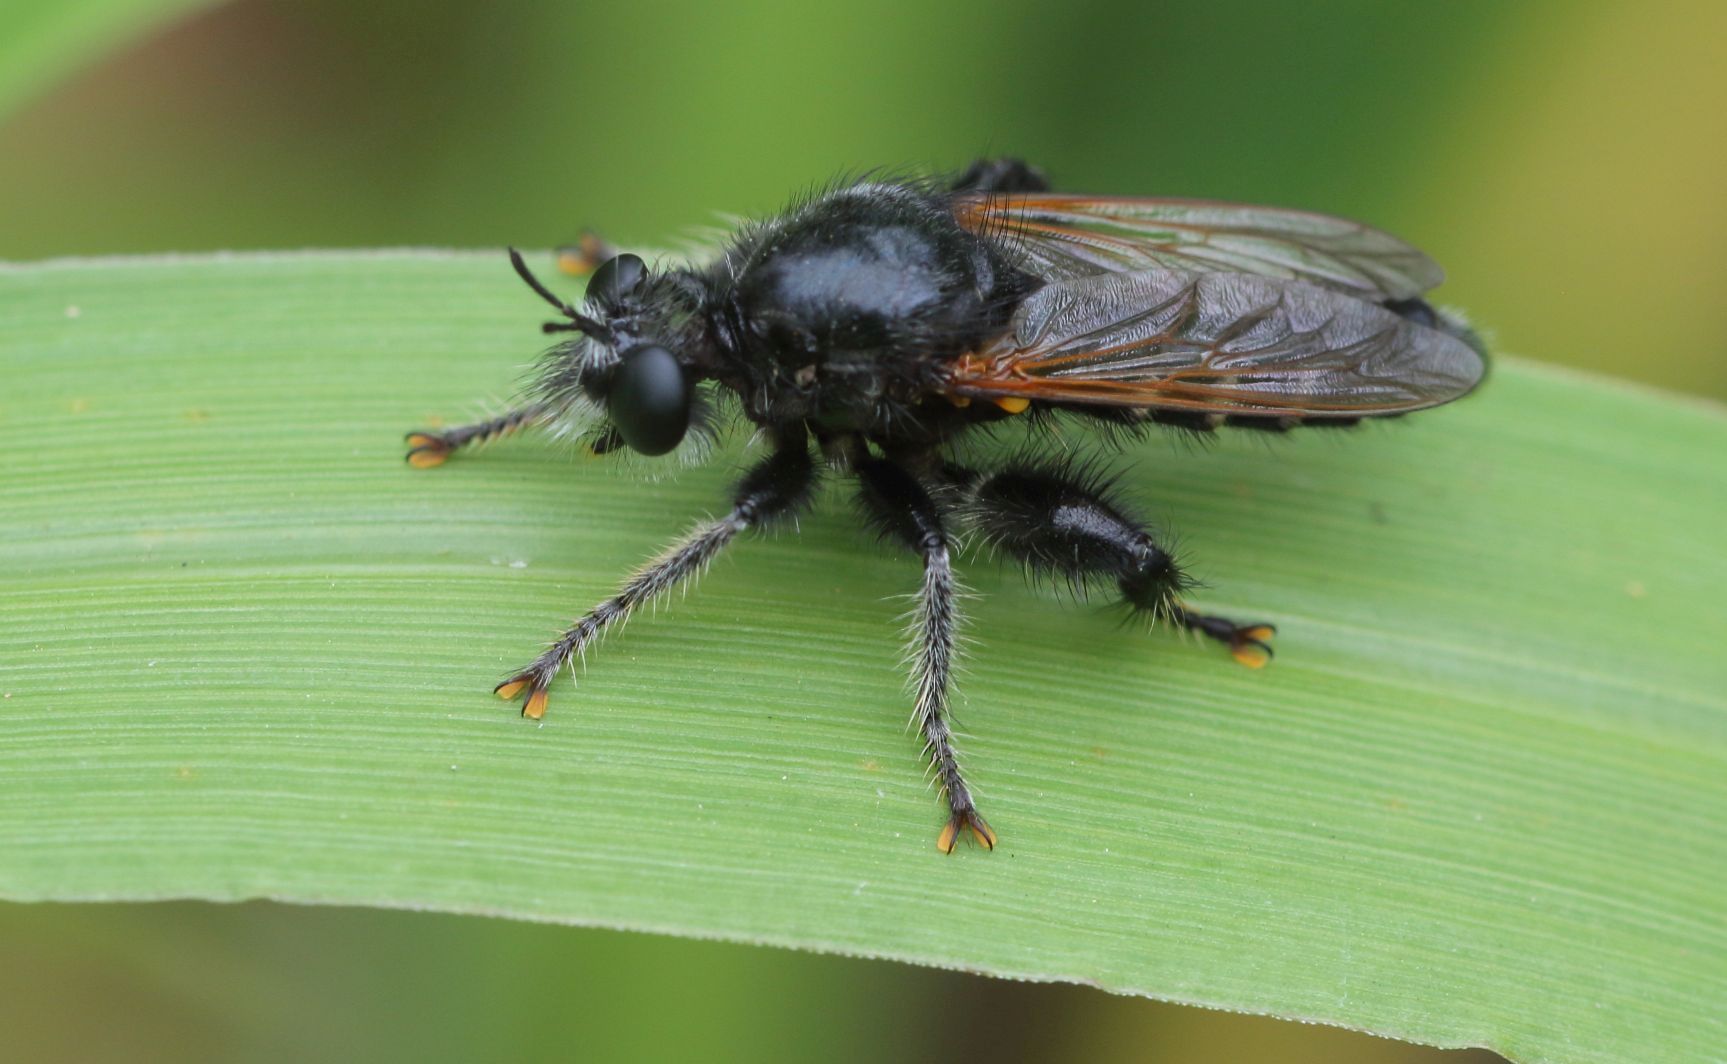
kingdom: Animalia
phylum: Arthropoda
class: Insecta
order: Diptera
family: Asilidae
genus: Laxenecera
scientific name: Laxenecera albicincta
